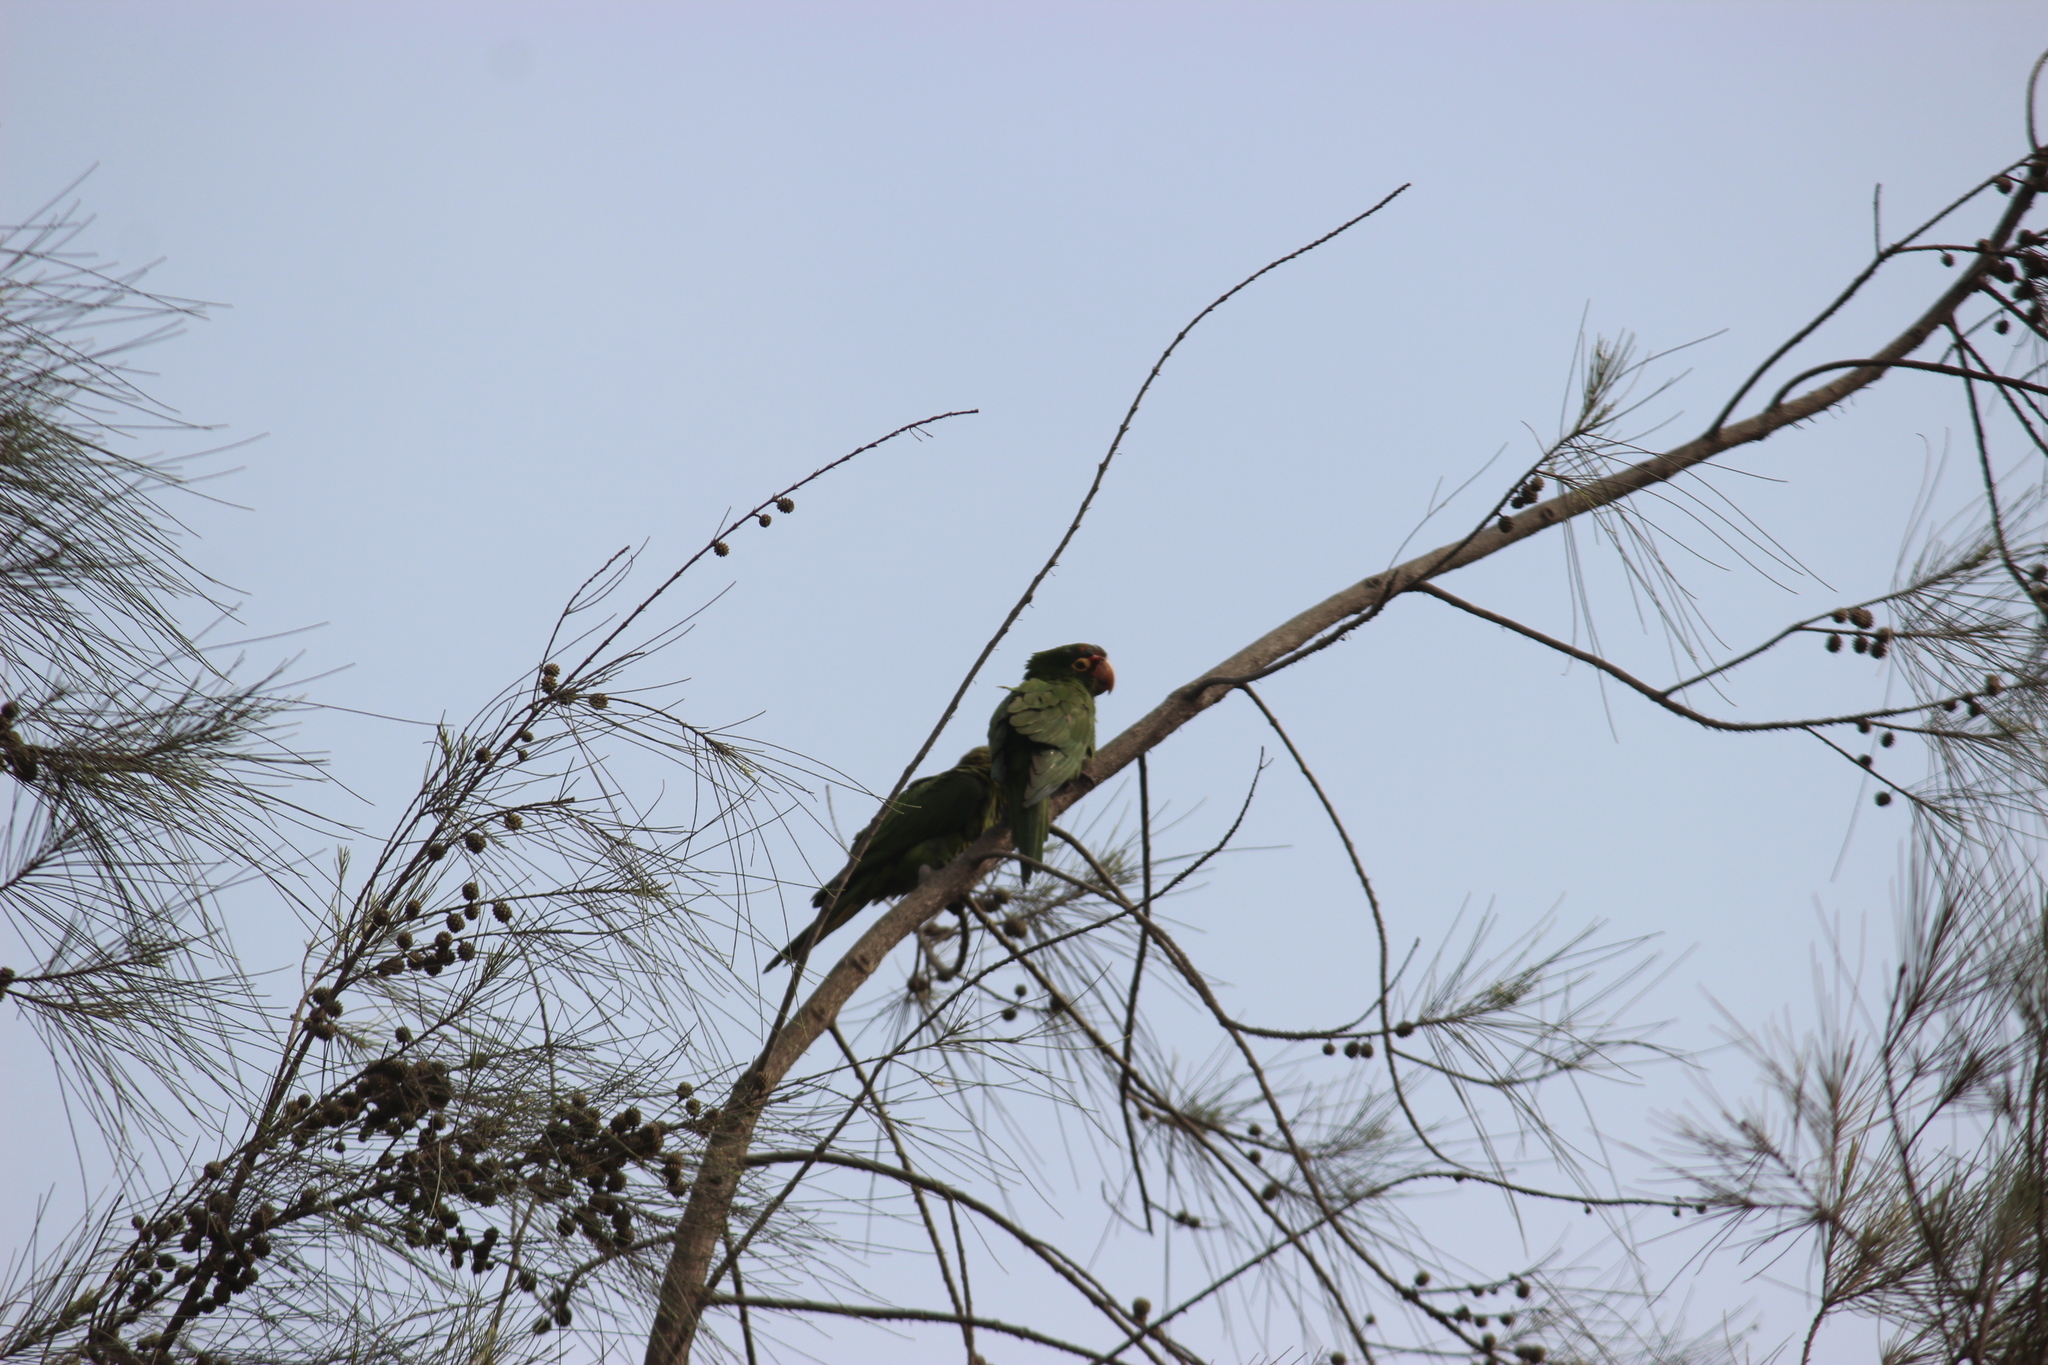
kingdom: Animalia
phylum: Chordata
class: Aves
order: Psittaciformes
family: Psittacidae
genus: Aratinga
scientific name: Aratinga erythrogenys
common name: Red-masked parakeet
